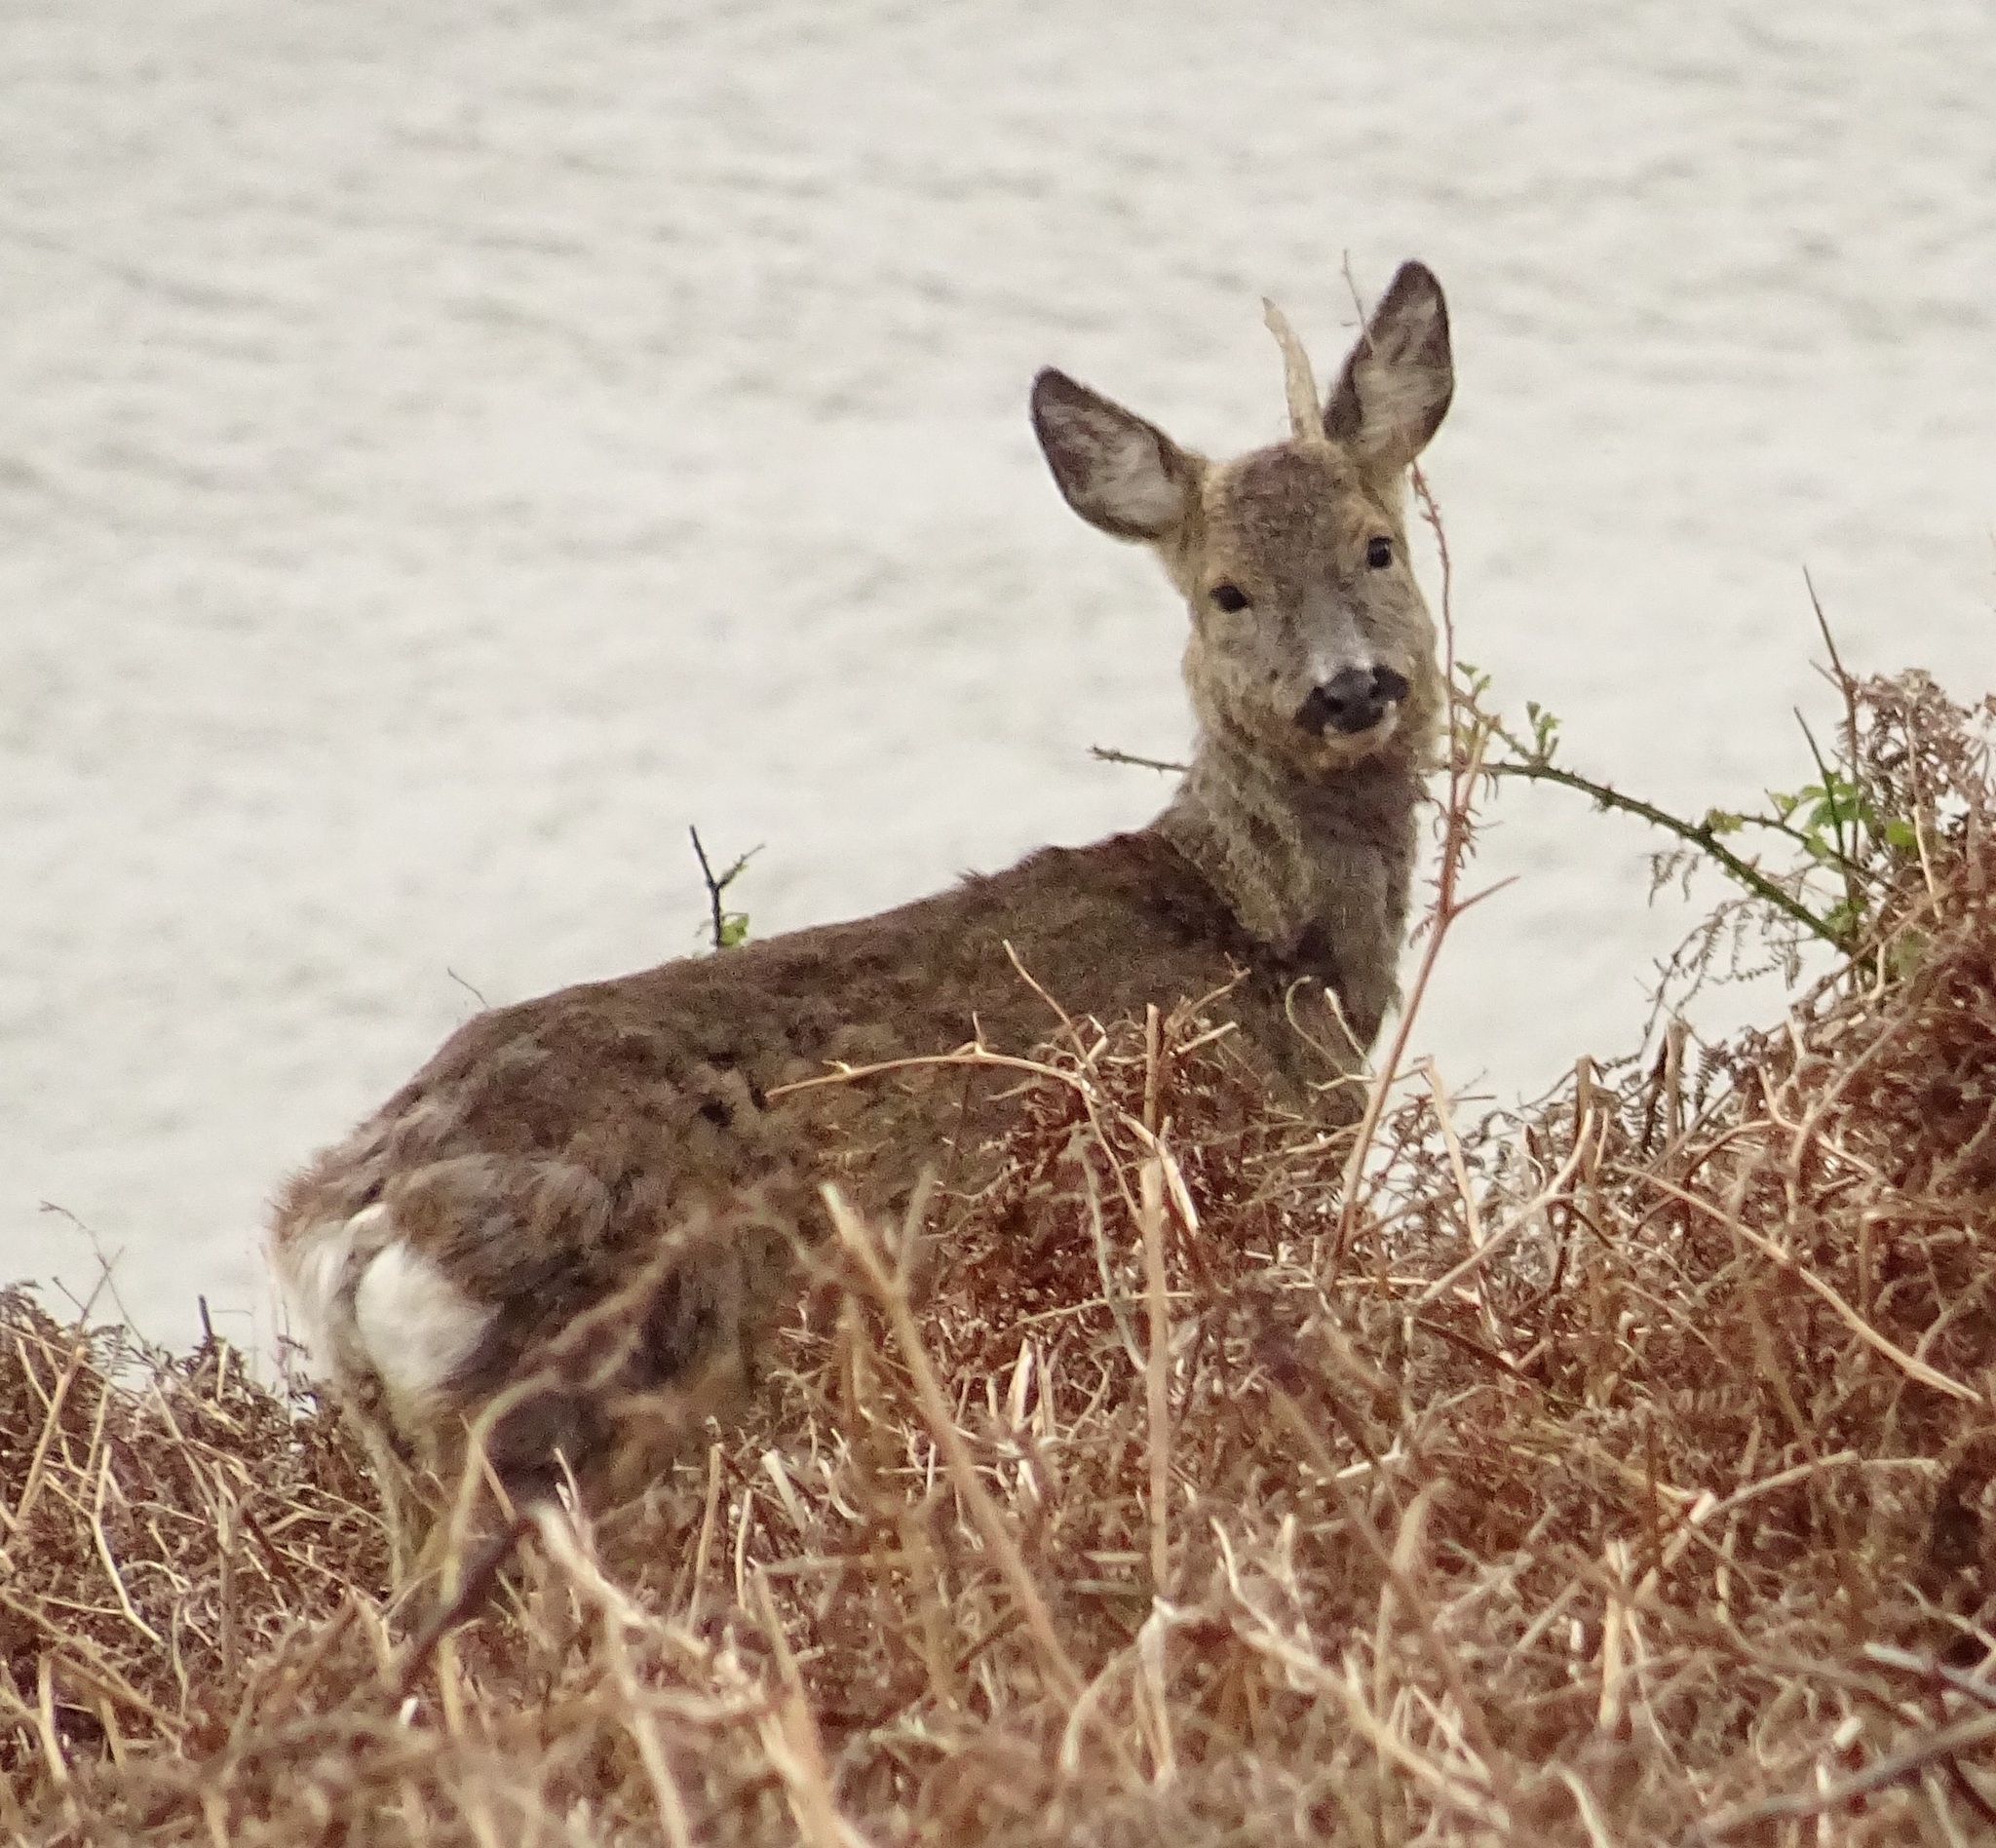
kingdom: Animalia
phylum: Chordata
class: Mammalia
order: Artiodactyla
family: Cervidae
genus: Capreolus
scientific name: Capreolus capreolus
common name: Western roe deer
